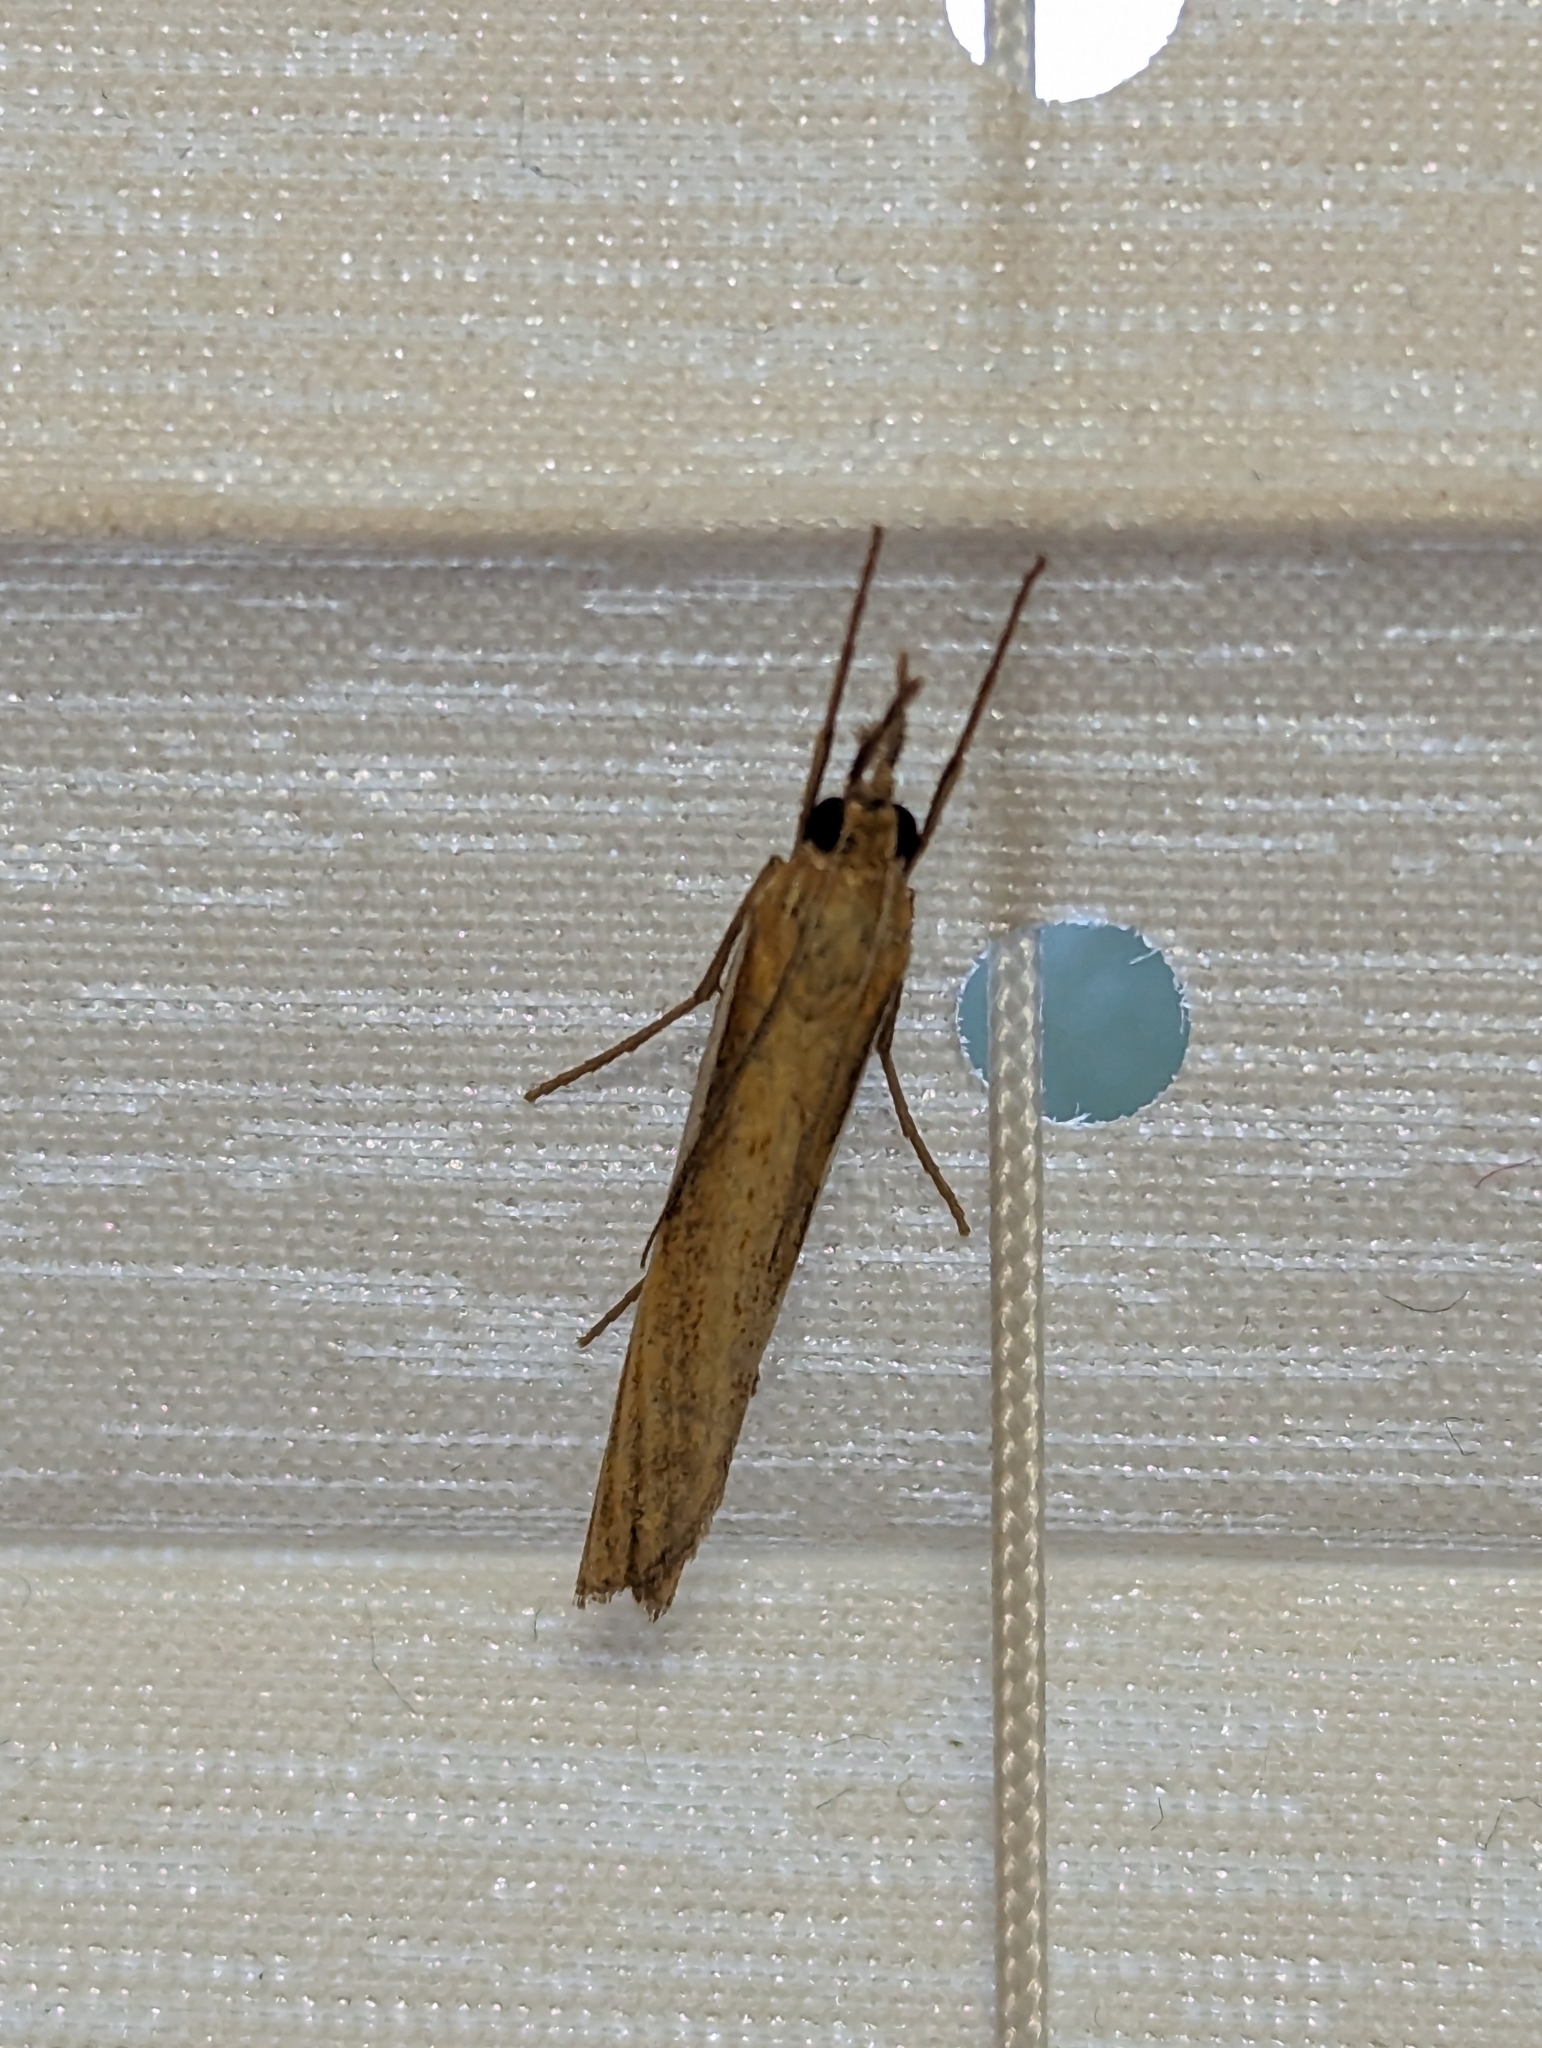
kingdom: Animalia
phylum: Arthropoda
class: Insecta
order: Lepidoptera
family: Crambidae
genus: Agriphila
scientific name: Agriphila tristellus
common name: Common grass-veneer
